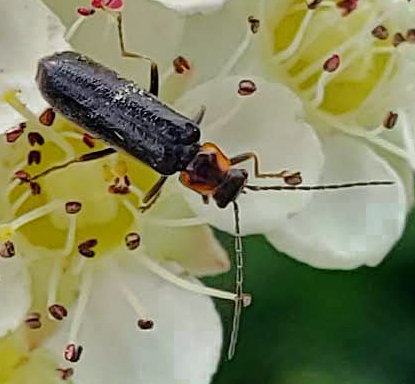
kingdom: Animalia
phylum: Arthropoda
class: Insecta
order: Coleoptera
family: Cantharidae
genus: Rhagonycha
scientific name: Rhagonycha angulata
